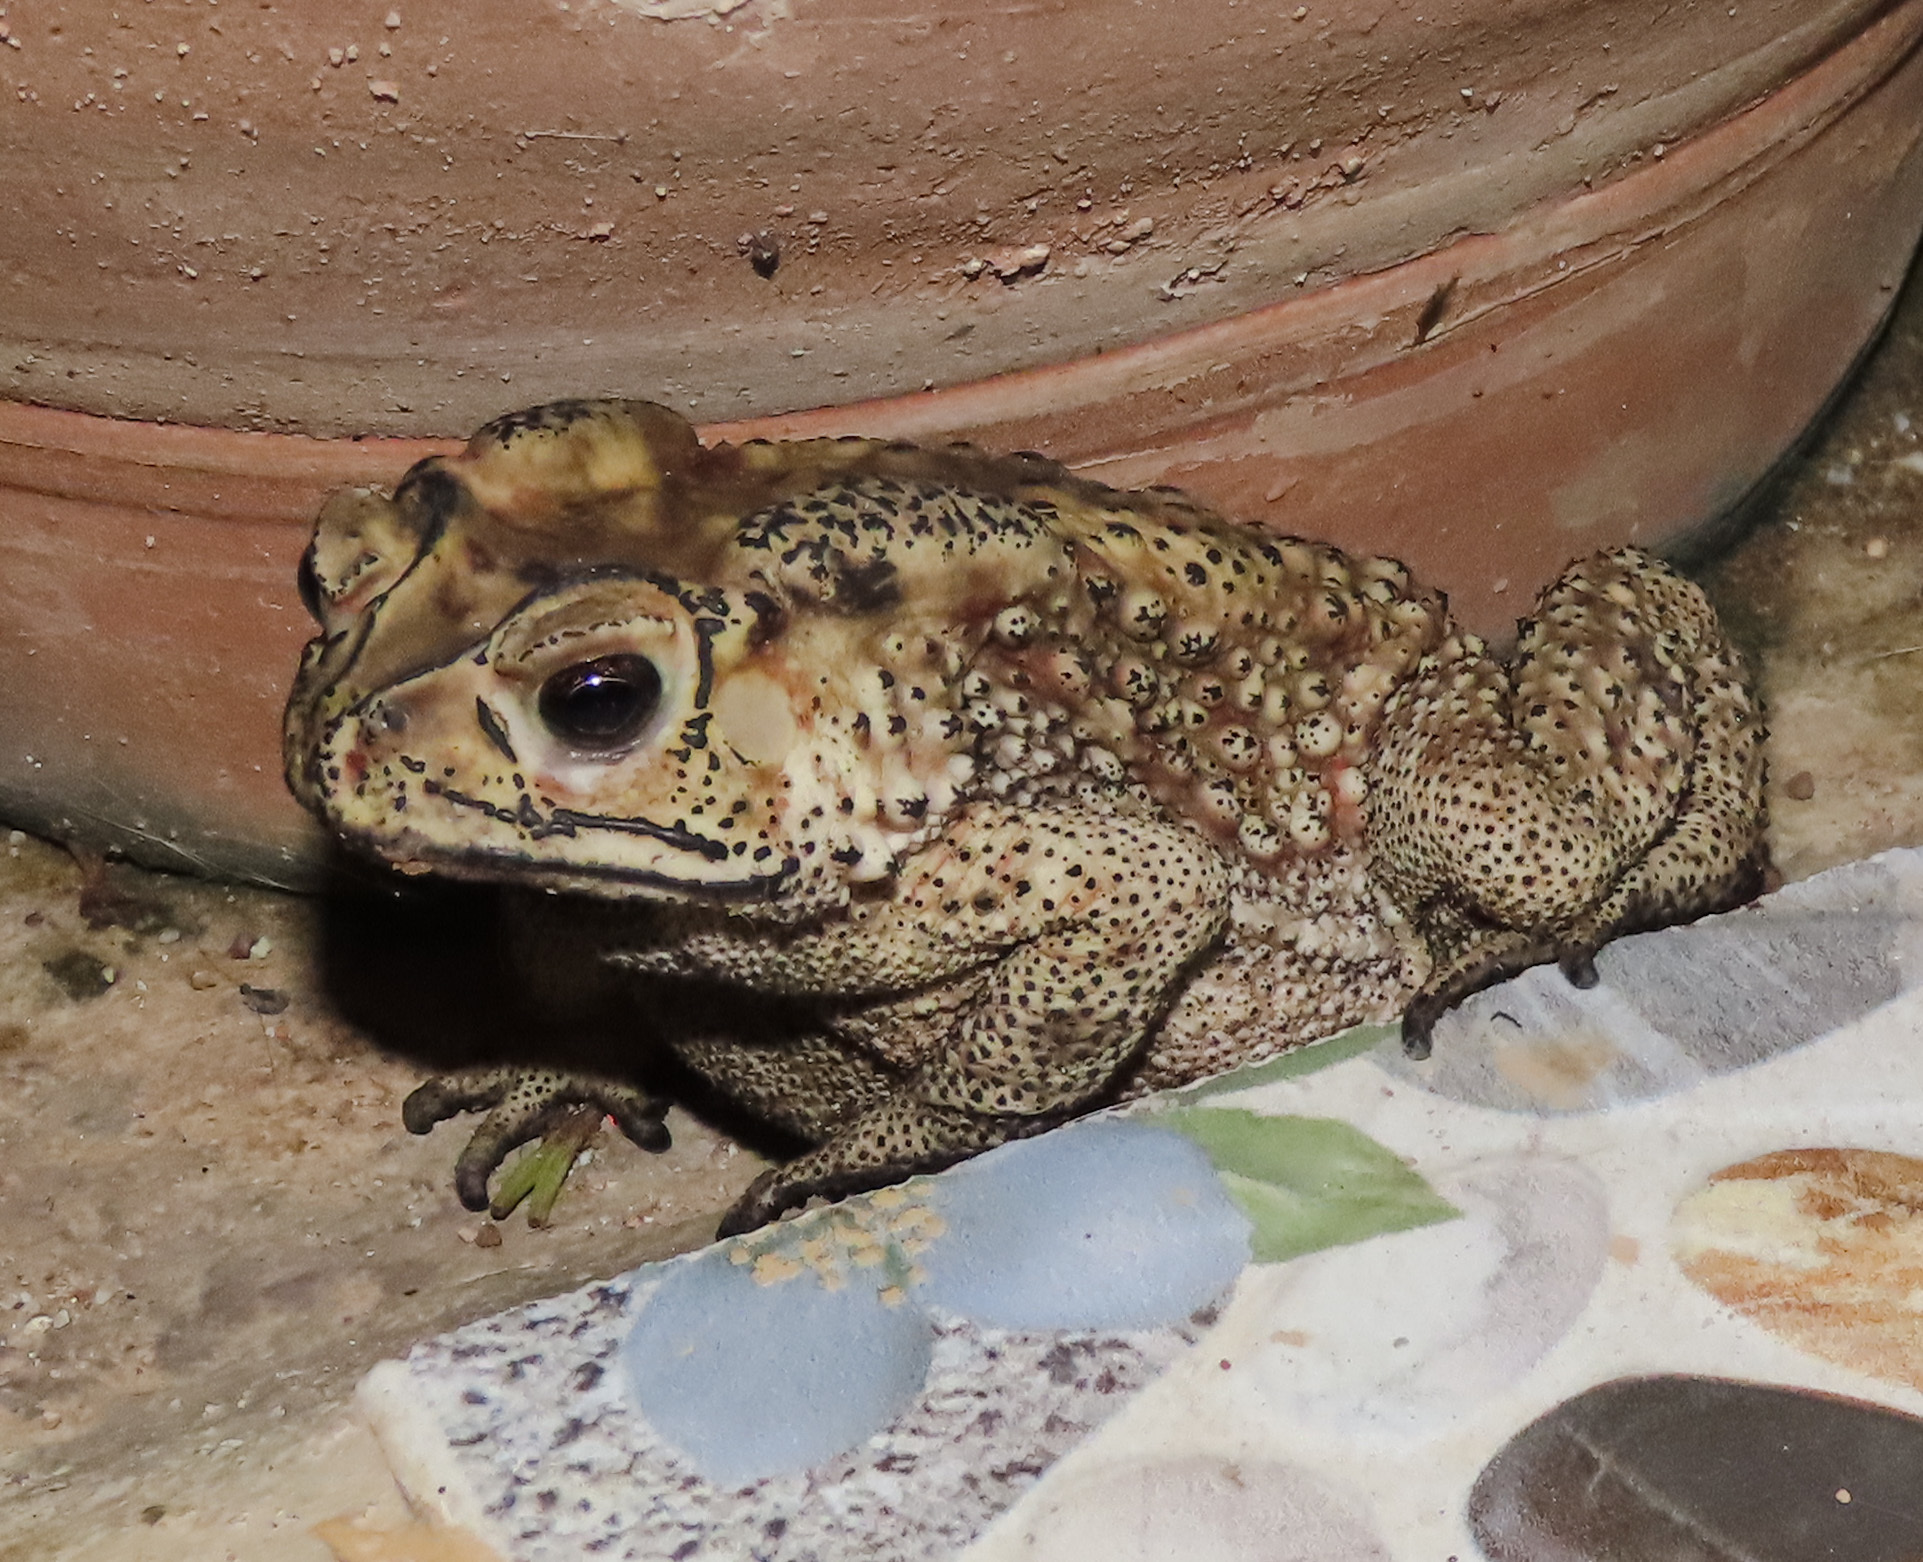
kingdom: Animalia
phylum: Chordata
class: Amphibia
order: Anura
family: Bufonidae
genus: Duttaphrynus
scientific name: Duttaphrynus melanostictus
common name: Common sunda toad
